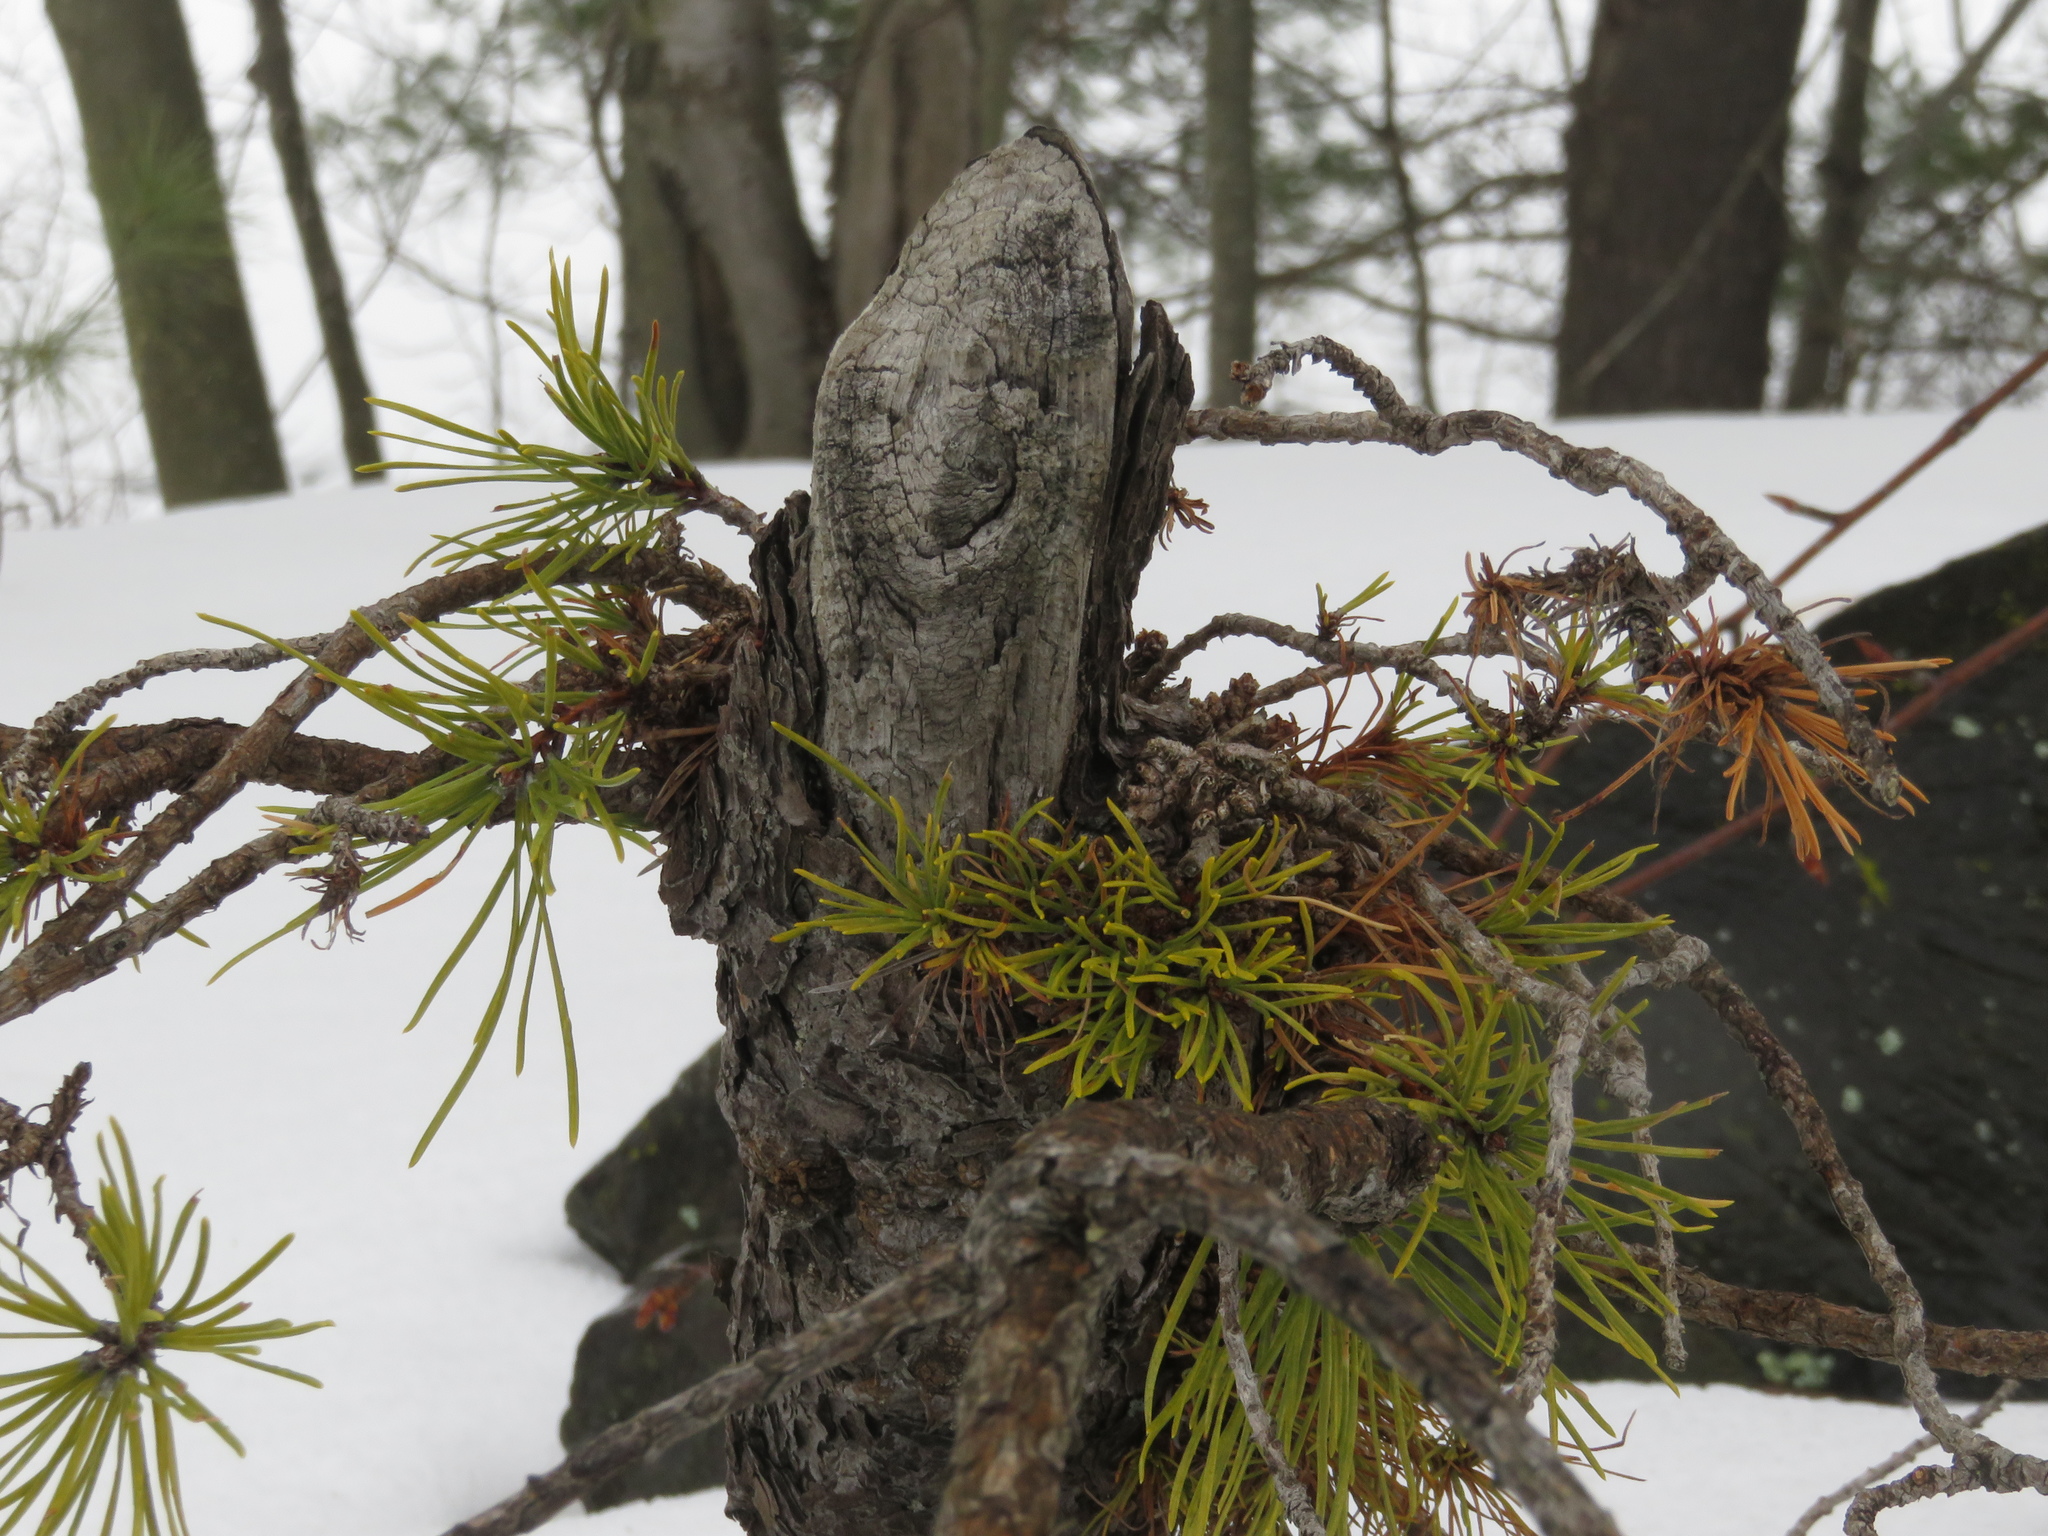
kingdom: Plantae
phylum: Tracheophyta
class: Pinopsida
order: Pinales
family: Pinaceae
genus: Pinus
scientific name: Pinus rigida
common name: Pitch pine
